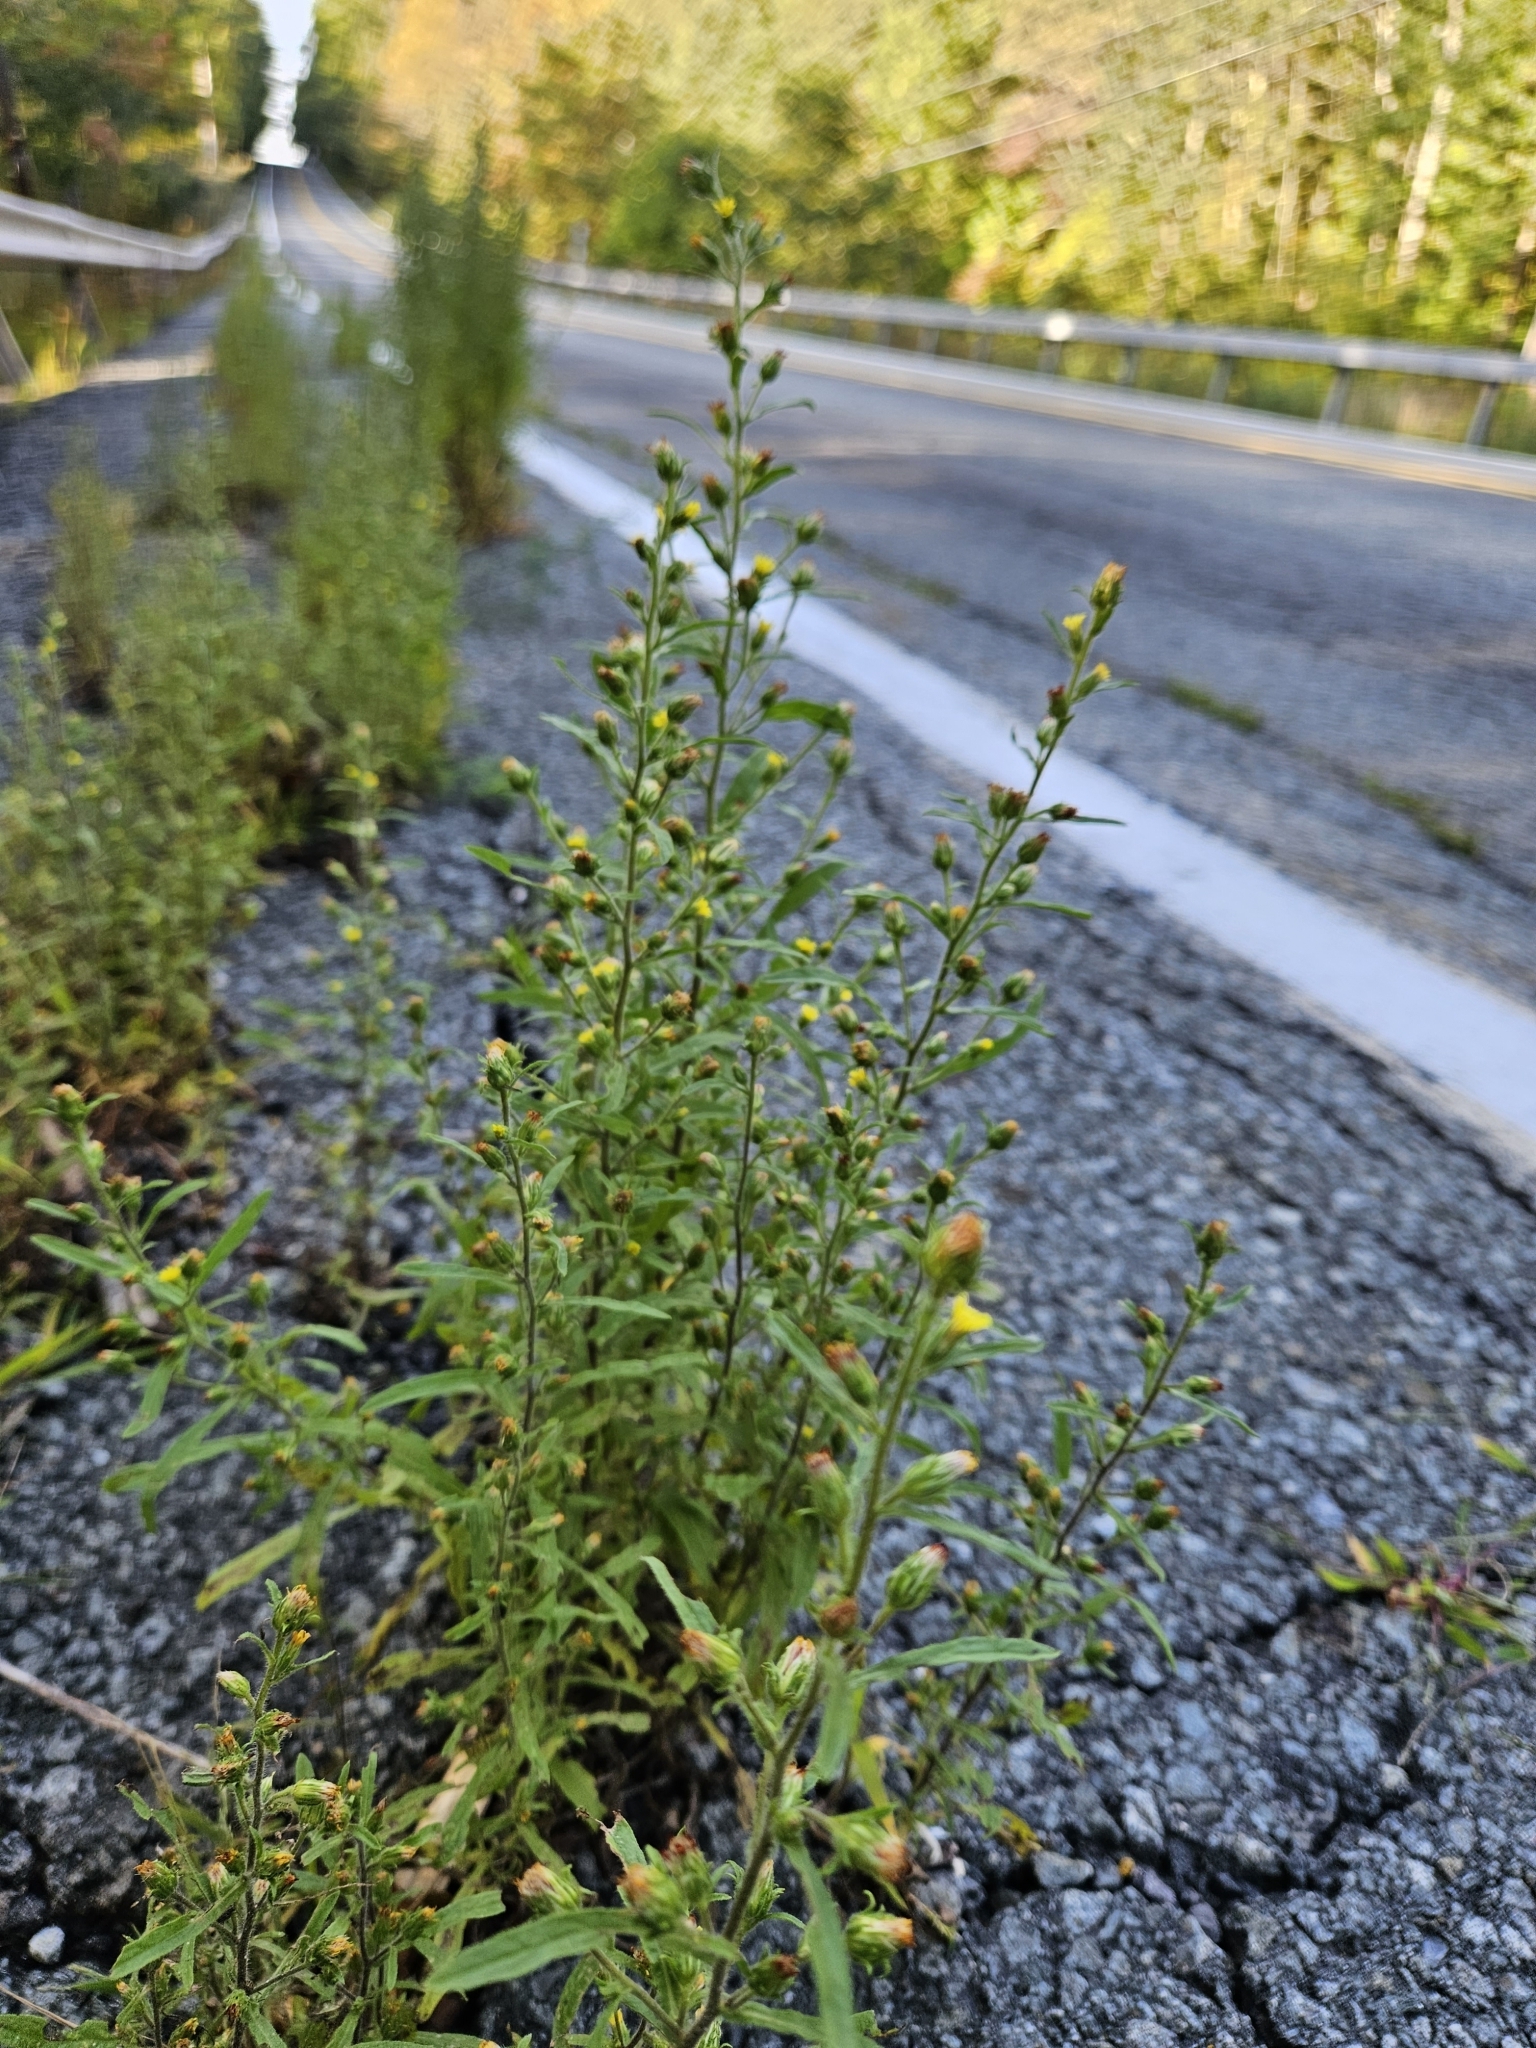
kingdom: Plantae
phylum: Tracheophyta
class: Magnoliopsida
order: Asterales
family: Asteraceae
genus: Dittrichia
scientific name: Dittrichia graveolens
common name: Stinking fleabane
